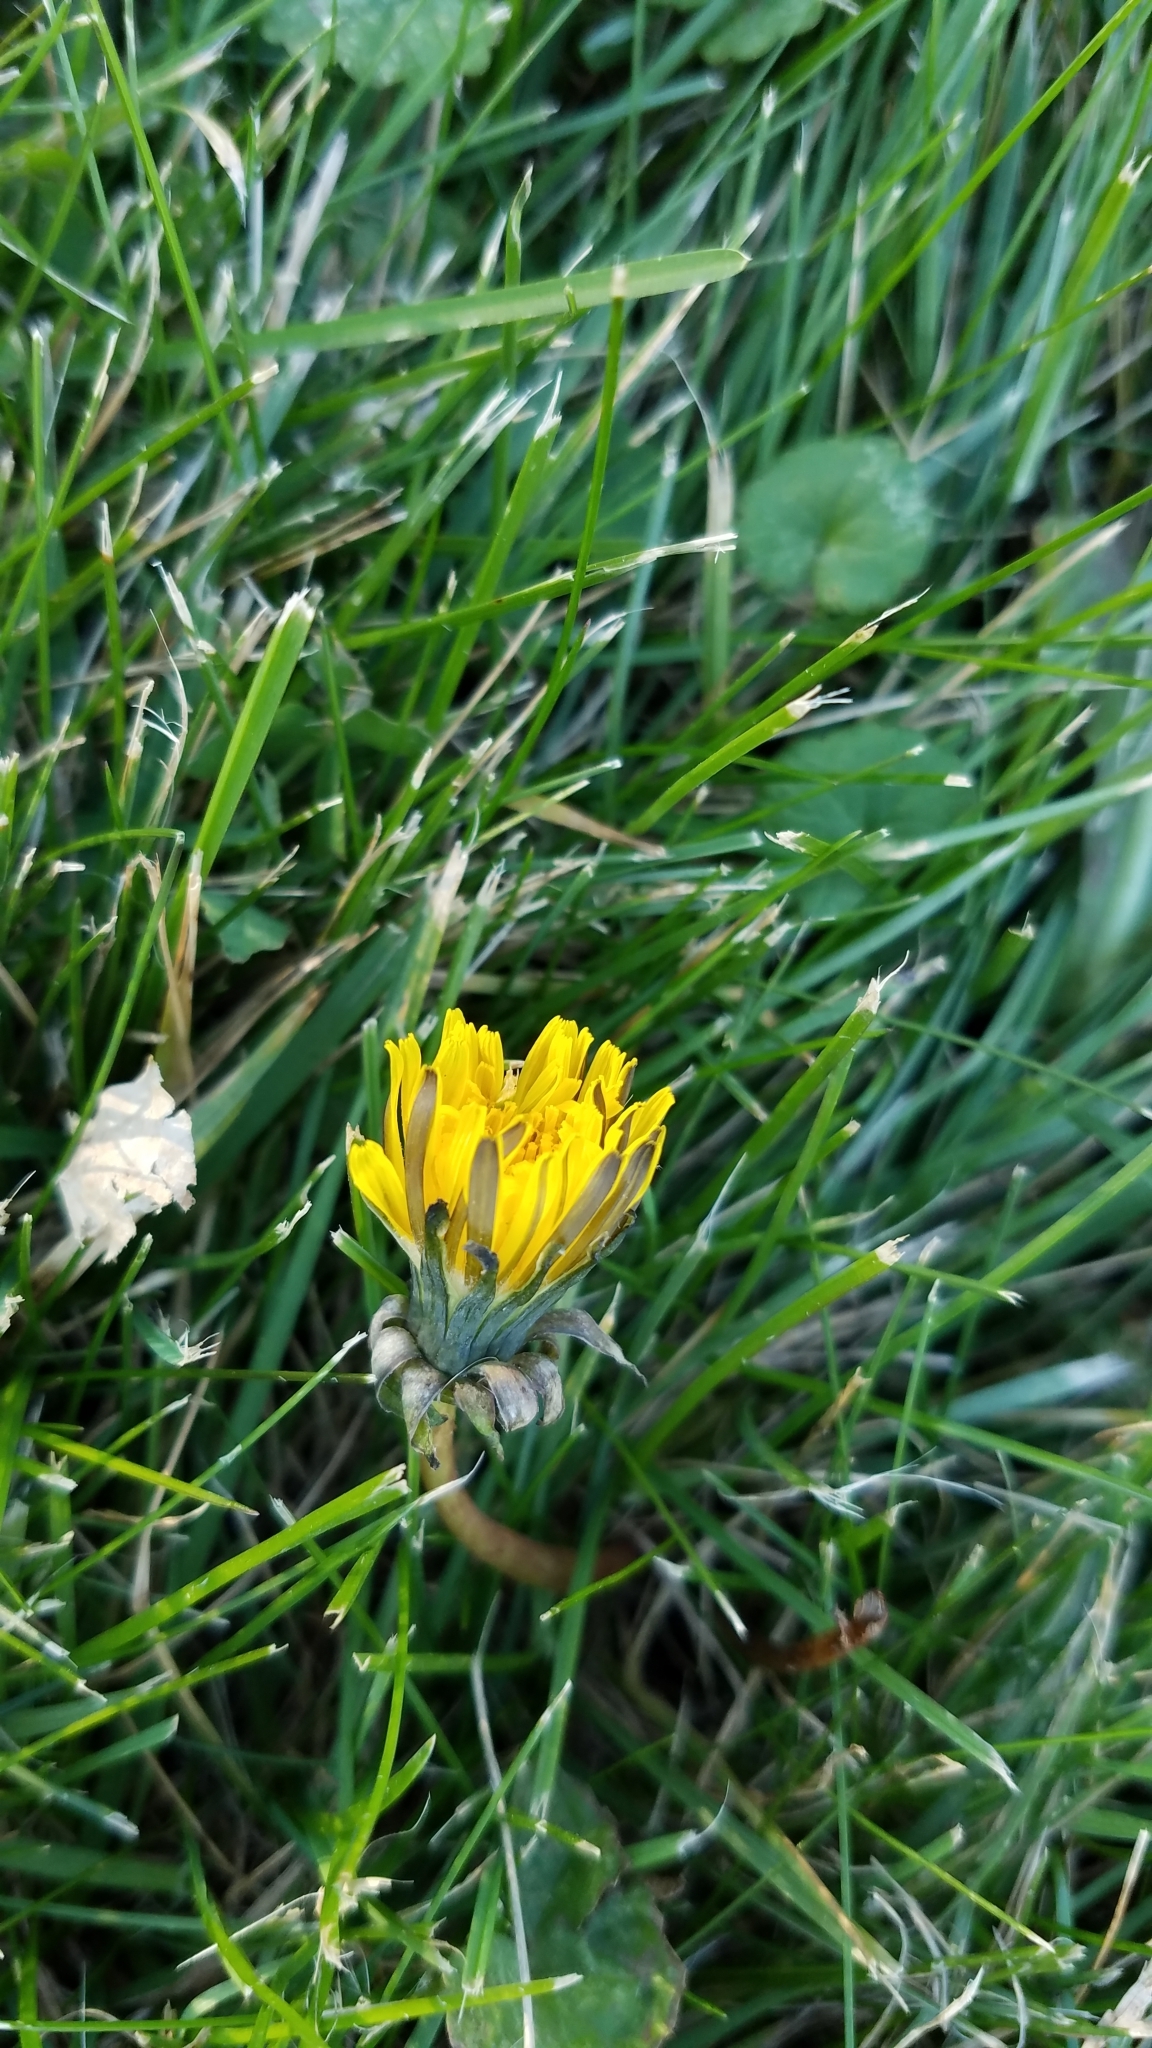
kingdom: Plantae
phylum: Tracheophyta
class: Magnoliopsida
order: Asterales
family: Asteraceae
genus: Taraxacum
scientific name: Taraxacum
